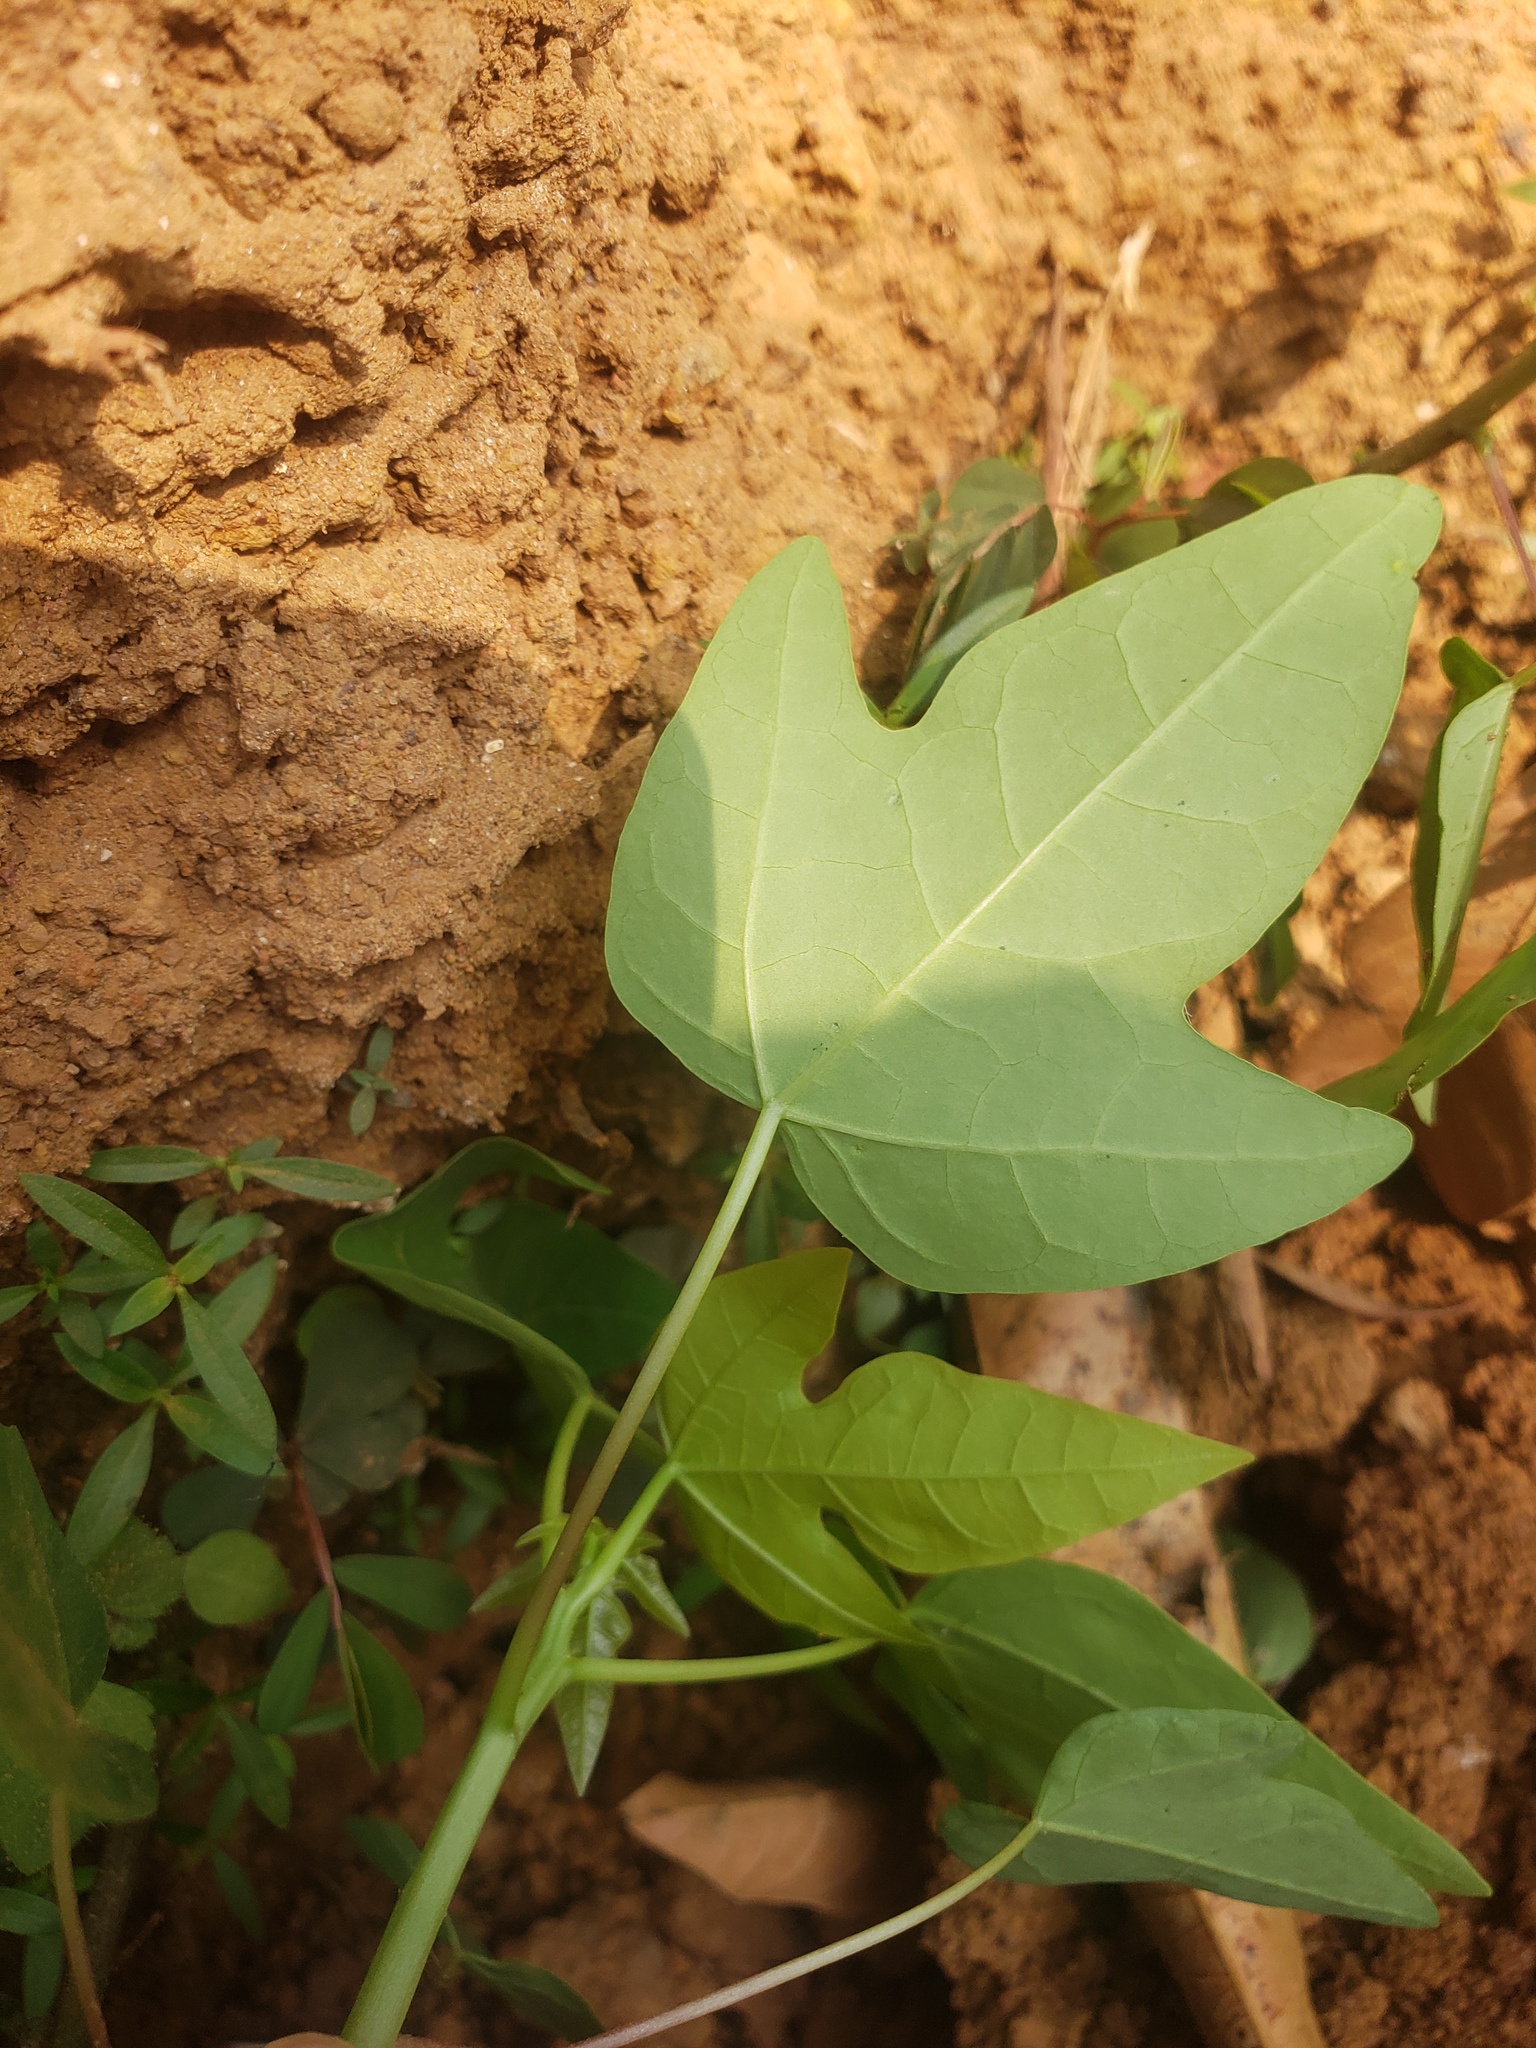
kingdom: Plantae
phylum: Tracheophyta
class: Magnoliopsida
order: Brassicales
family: Caricaceae
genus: Carica
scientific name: Carica papaya
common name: Papaya
